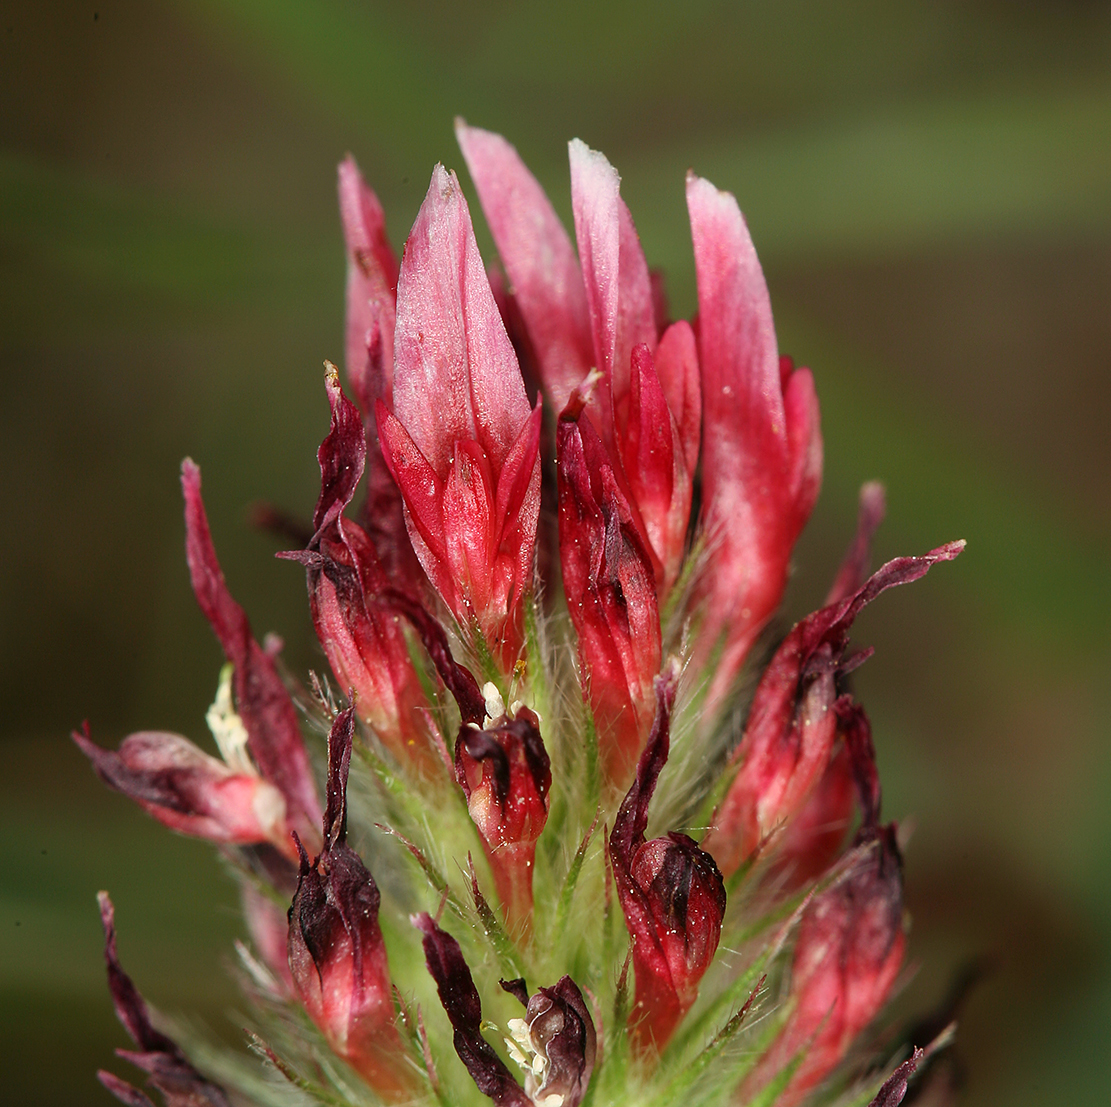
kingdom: Plantae
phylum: Tracheophyta
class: Magnoliopsida
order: Fabales
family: Fabaceae
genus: Trifolium
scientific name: Trifolium incarnatum
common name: Crimson clover
